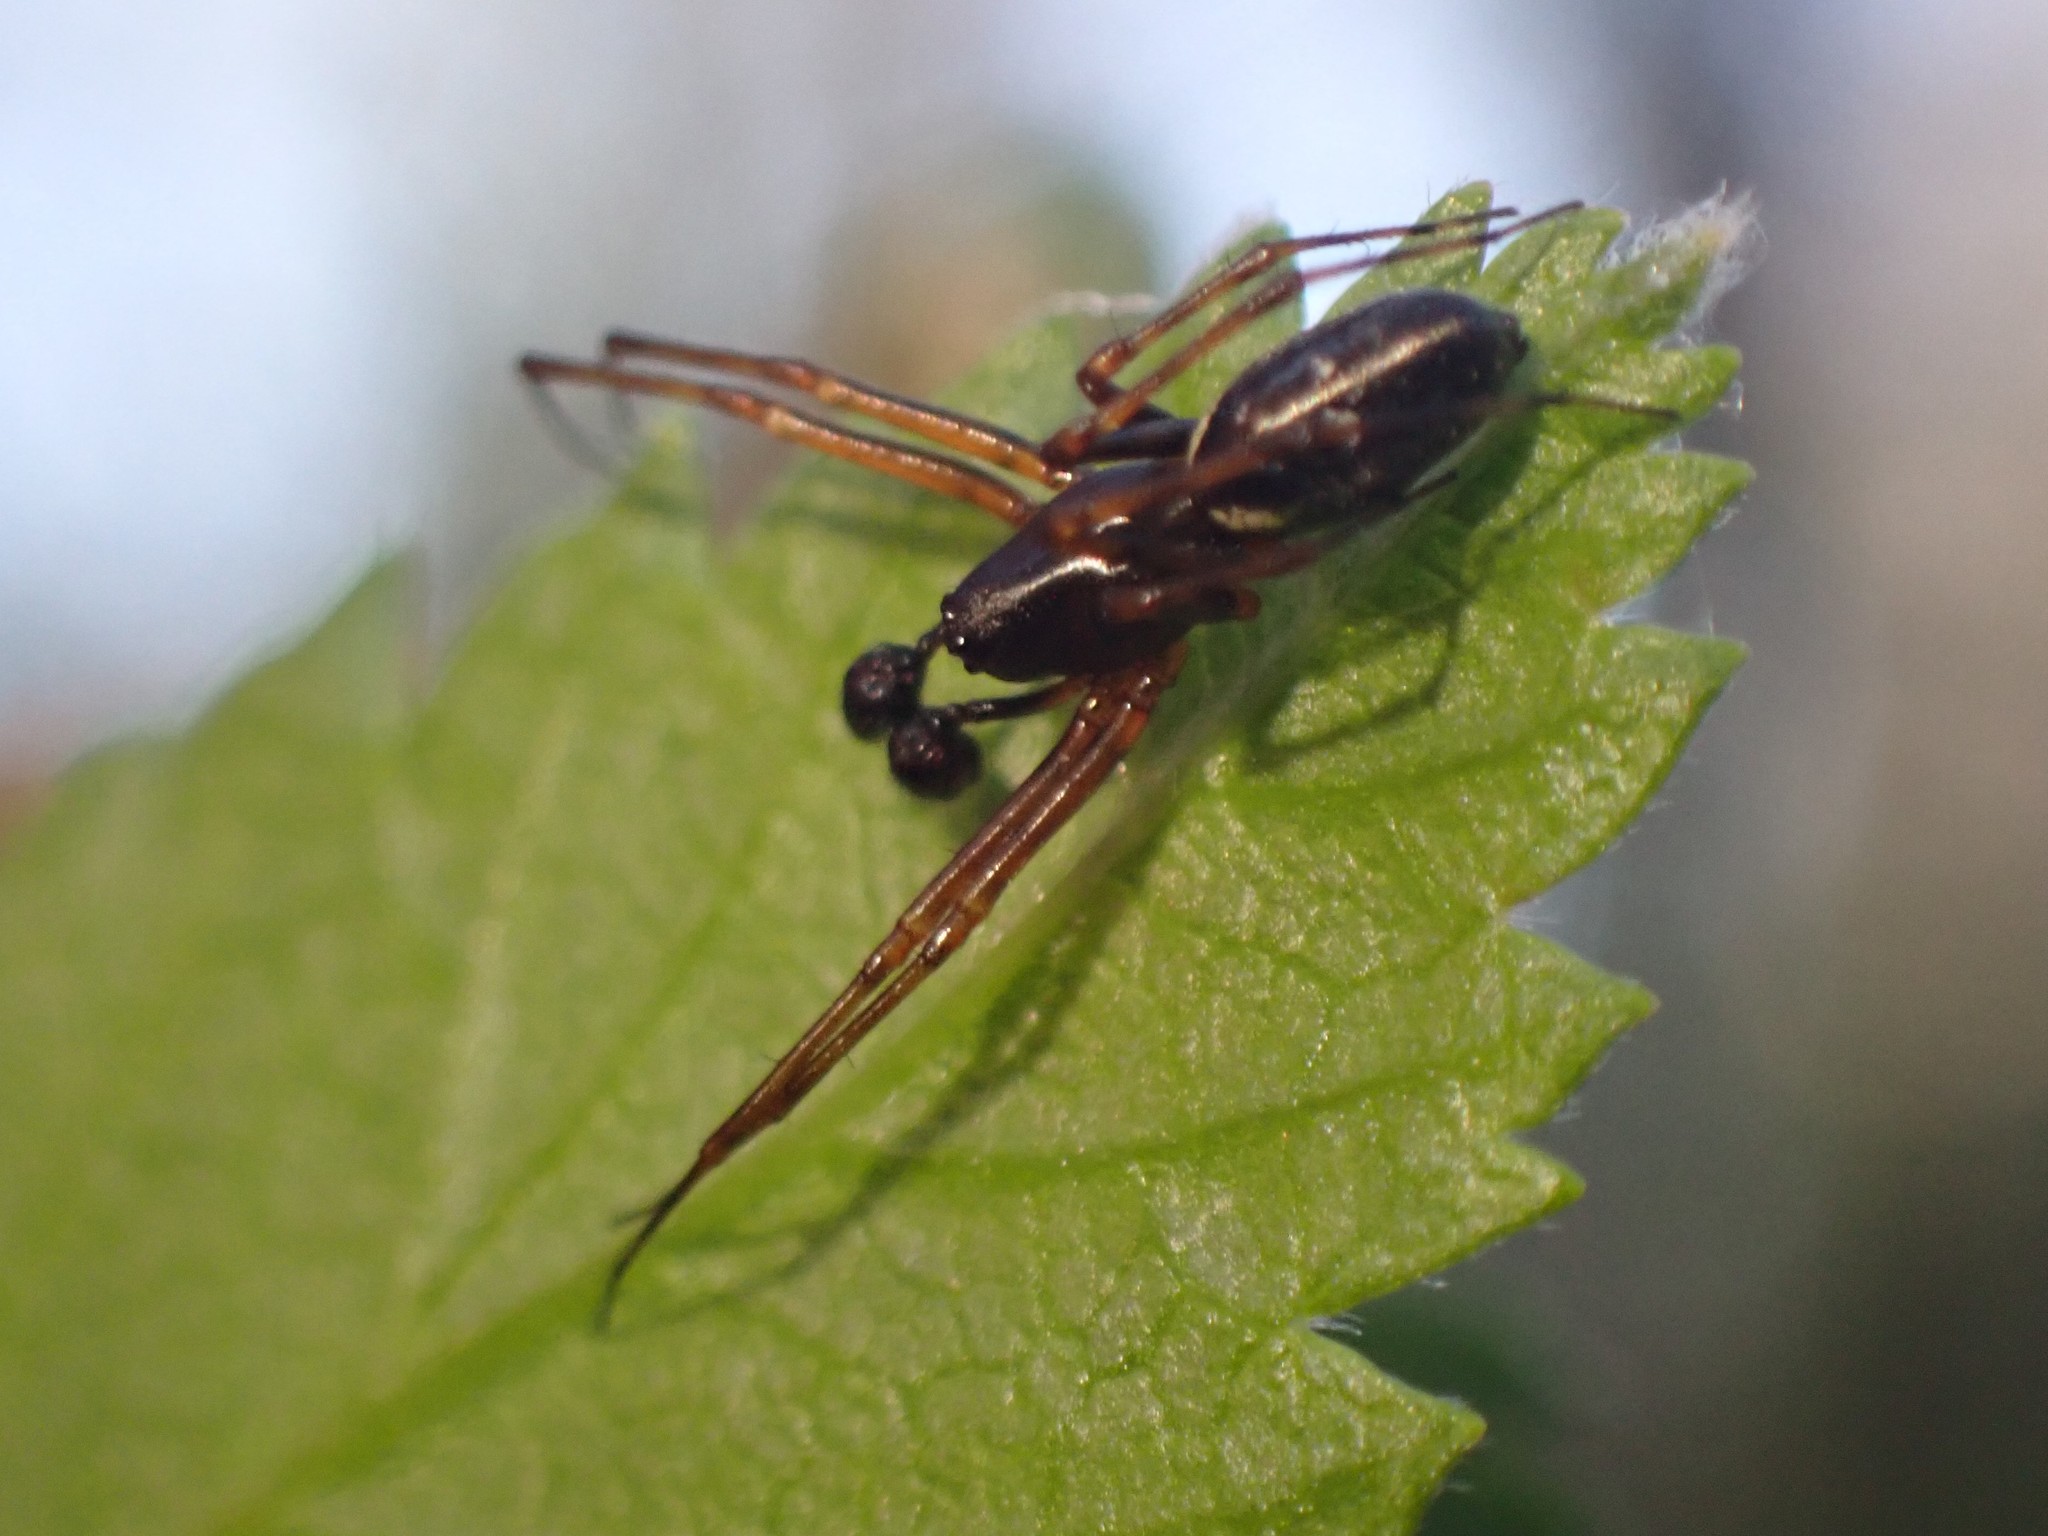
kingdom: Animalia
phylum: Arthropoda
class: Arachnida
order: Araneae
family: Linyphiidae
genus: Neriene
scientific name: Neriene digna
